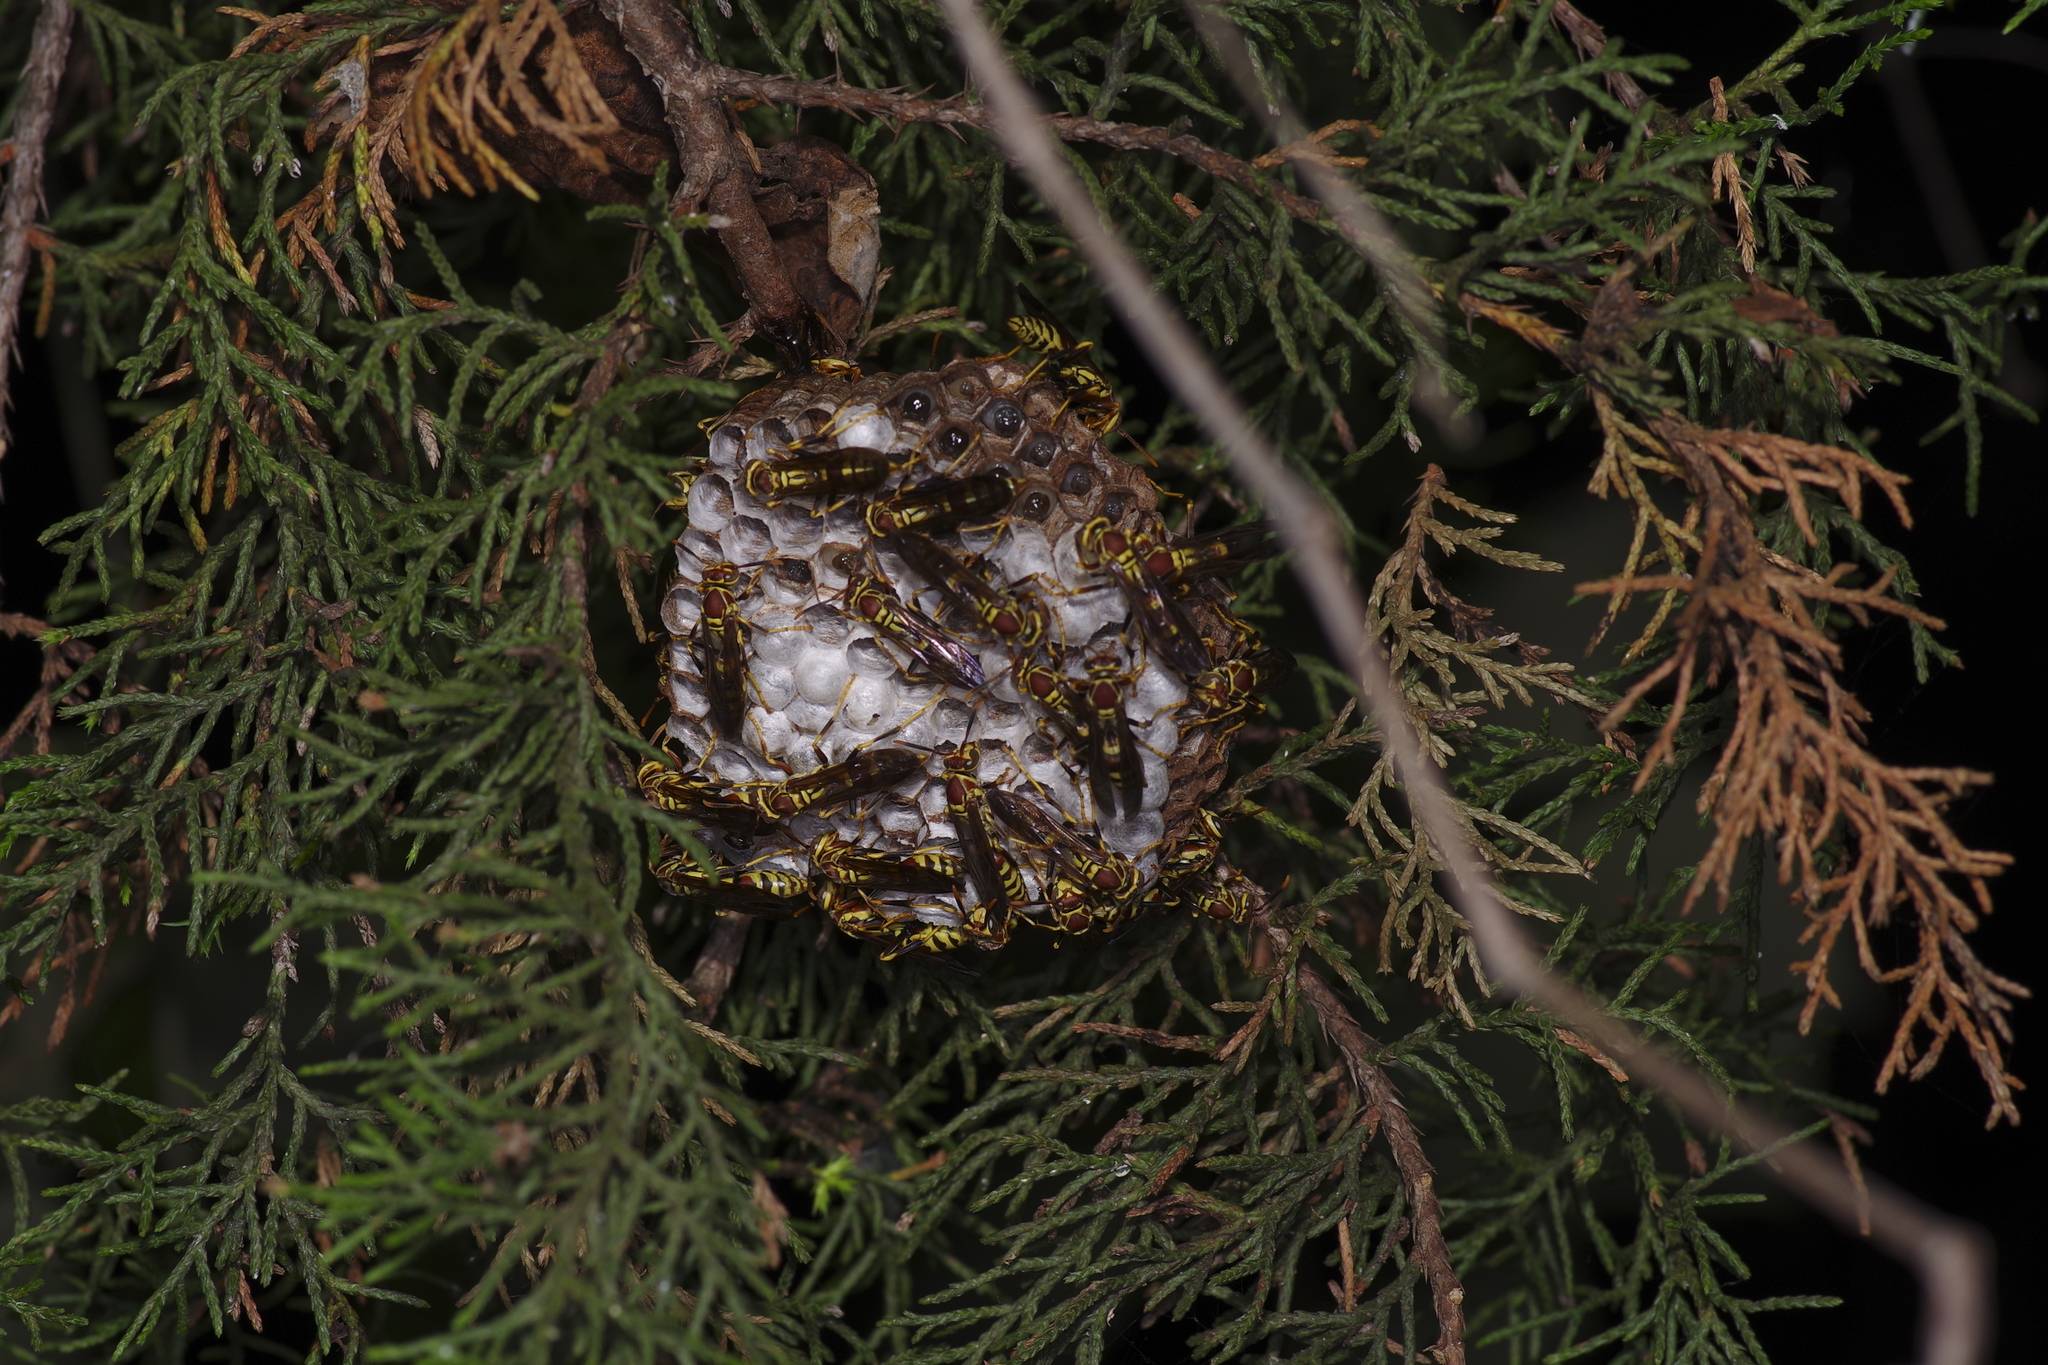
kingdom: Animalia
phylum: Arthropoda
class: Insecta
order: Hymenoptera
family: Eumenidae
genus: Polistes
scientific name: Polistes exclamans
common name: Paper wasp
